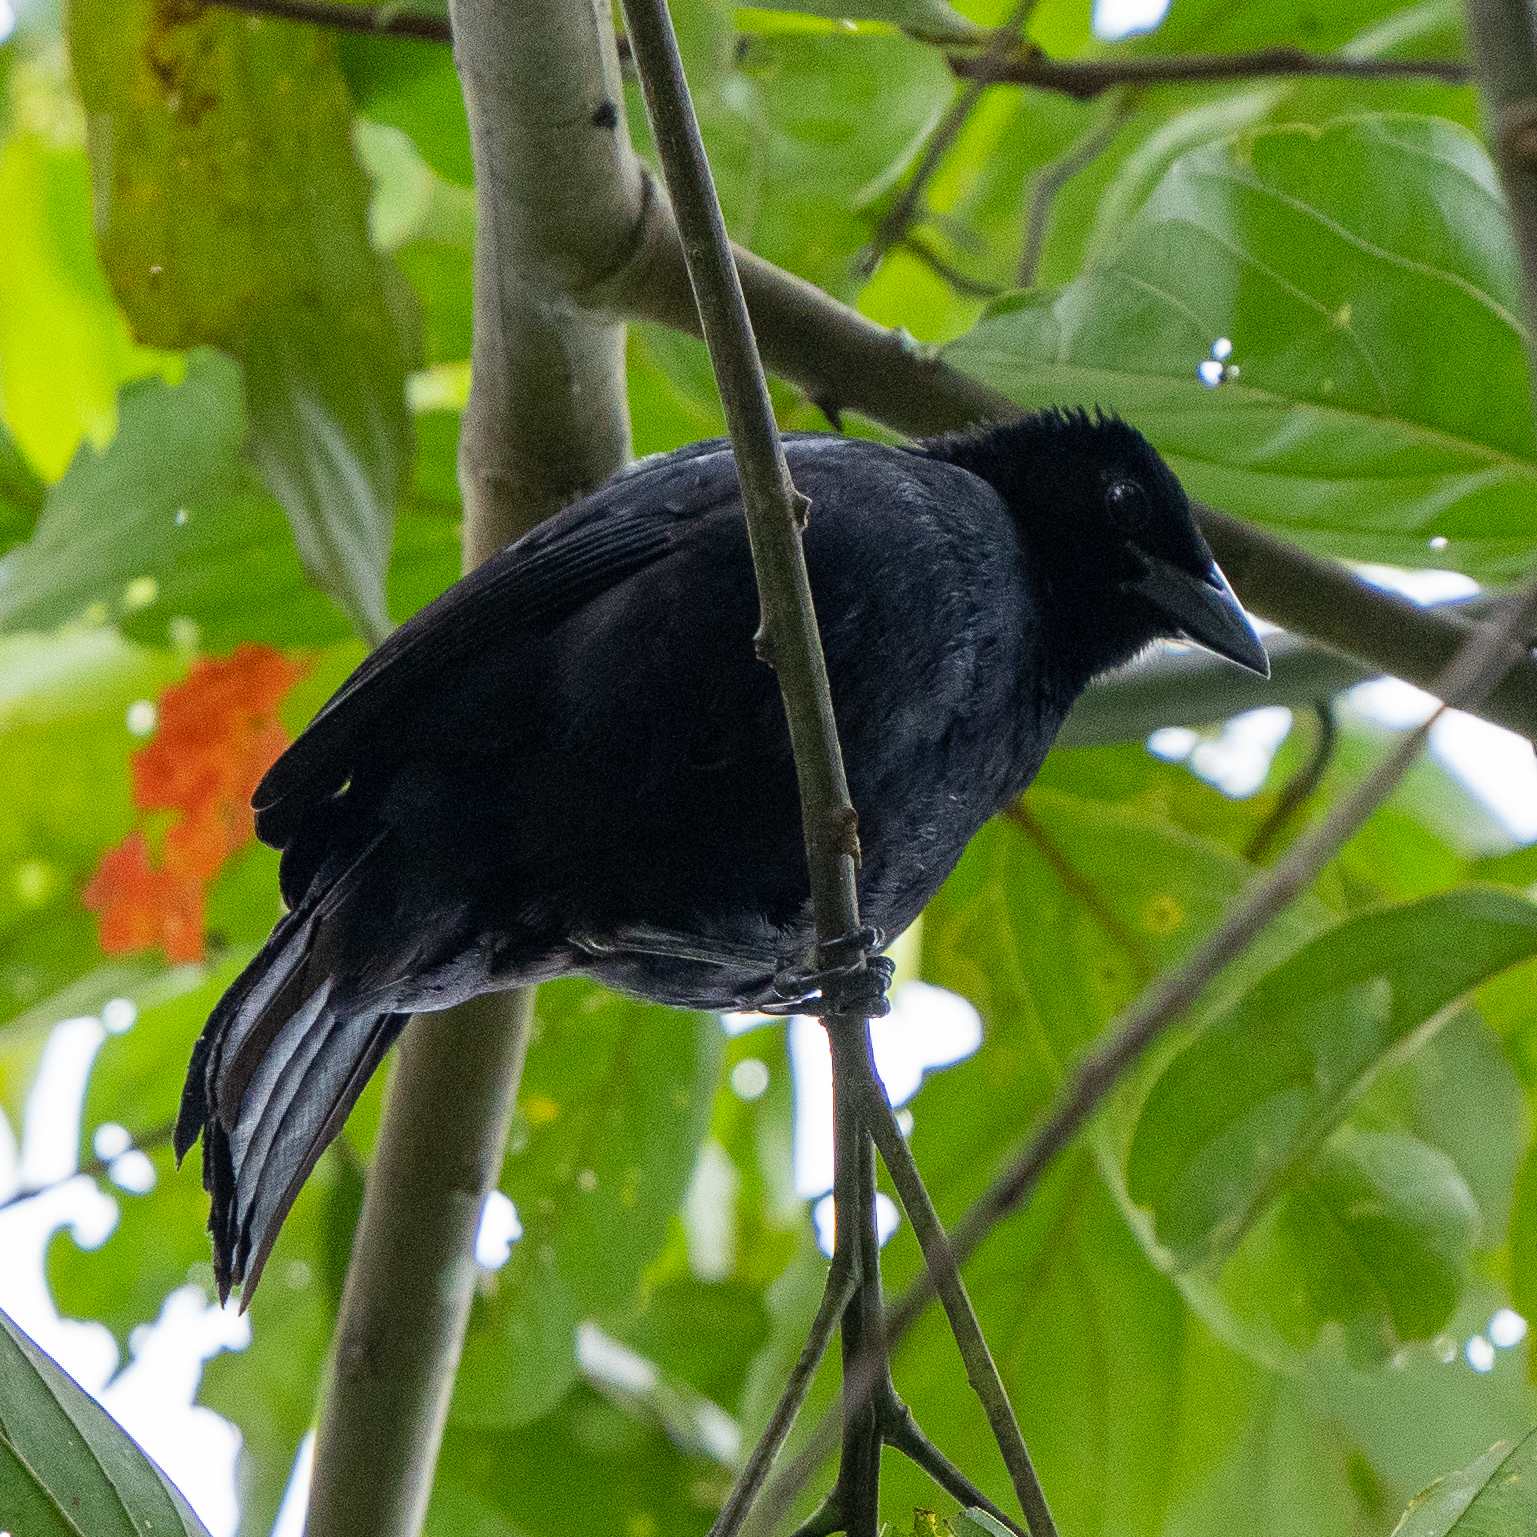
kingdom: Animalia
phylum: Chordata
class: Aves
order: Passeriformes
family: Icteridae
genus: Dives
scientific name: Dives dives
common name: Melodious blackbird
